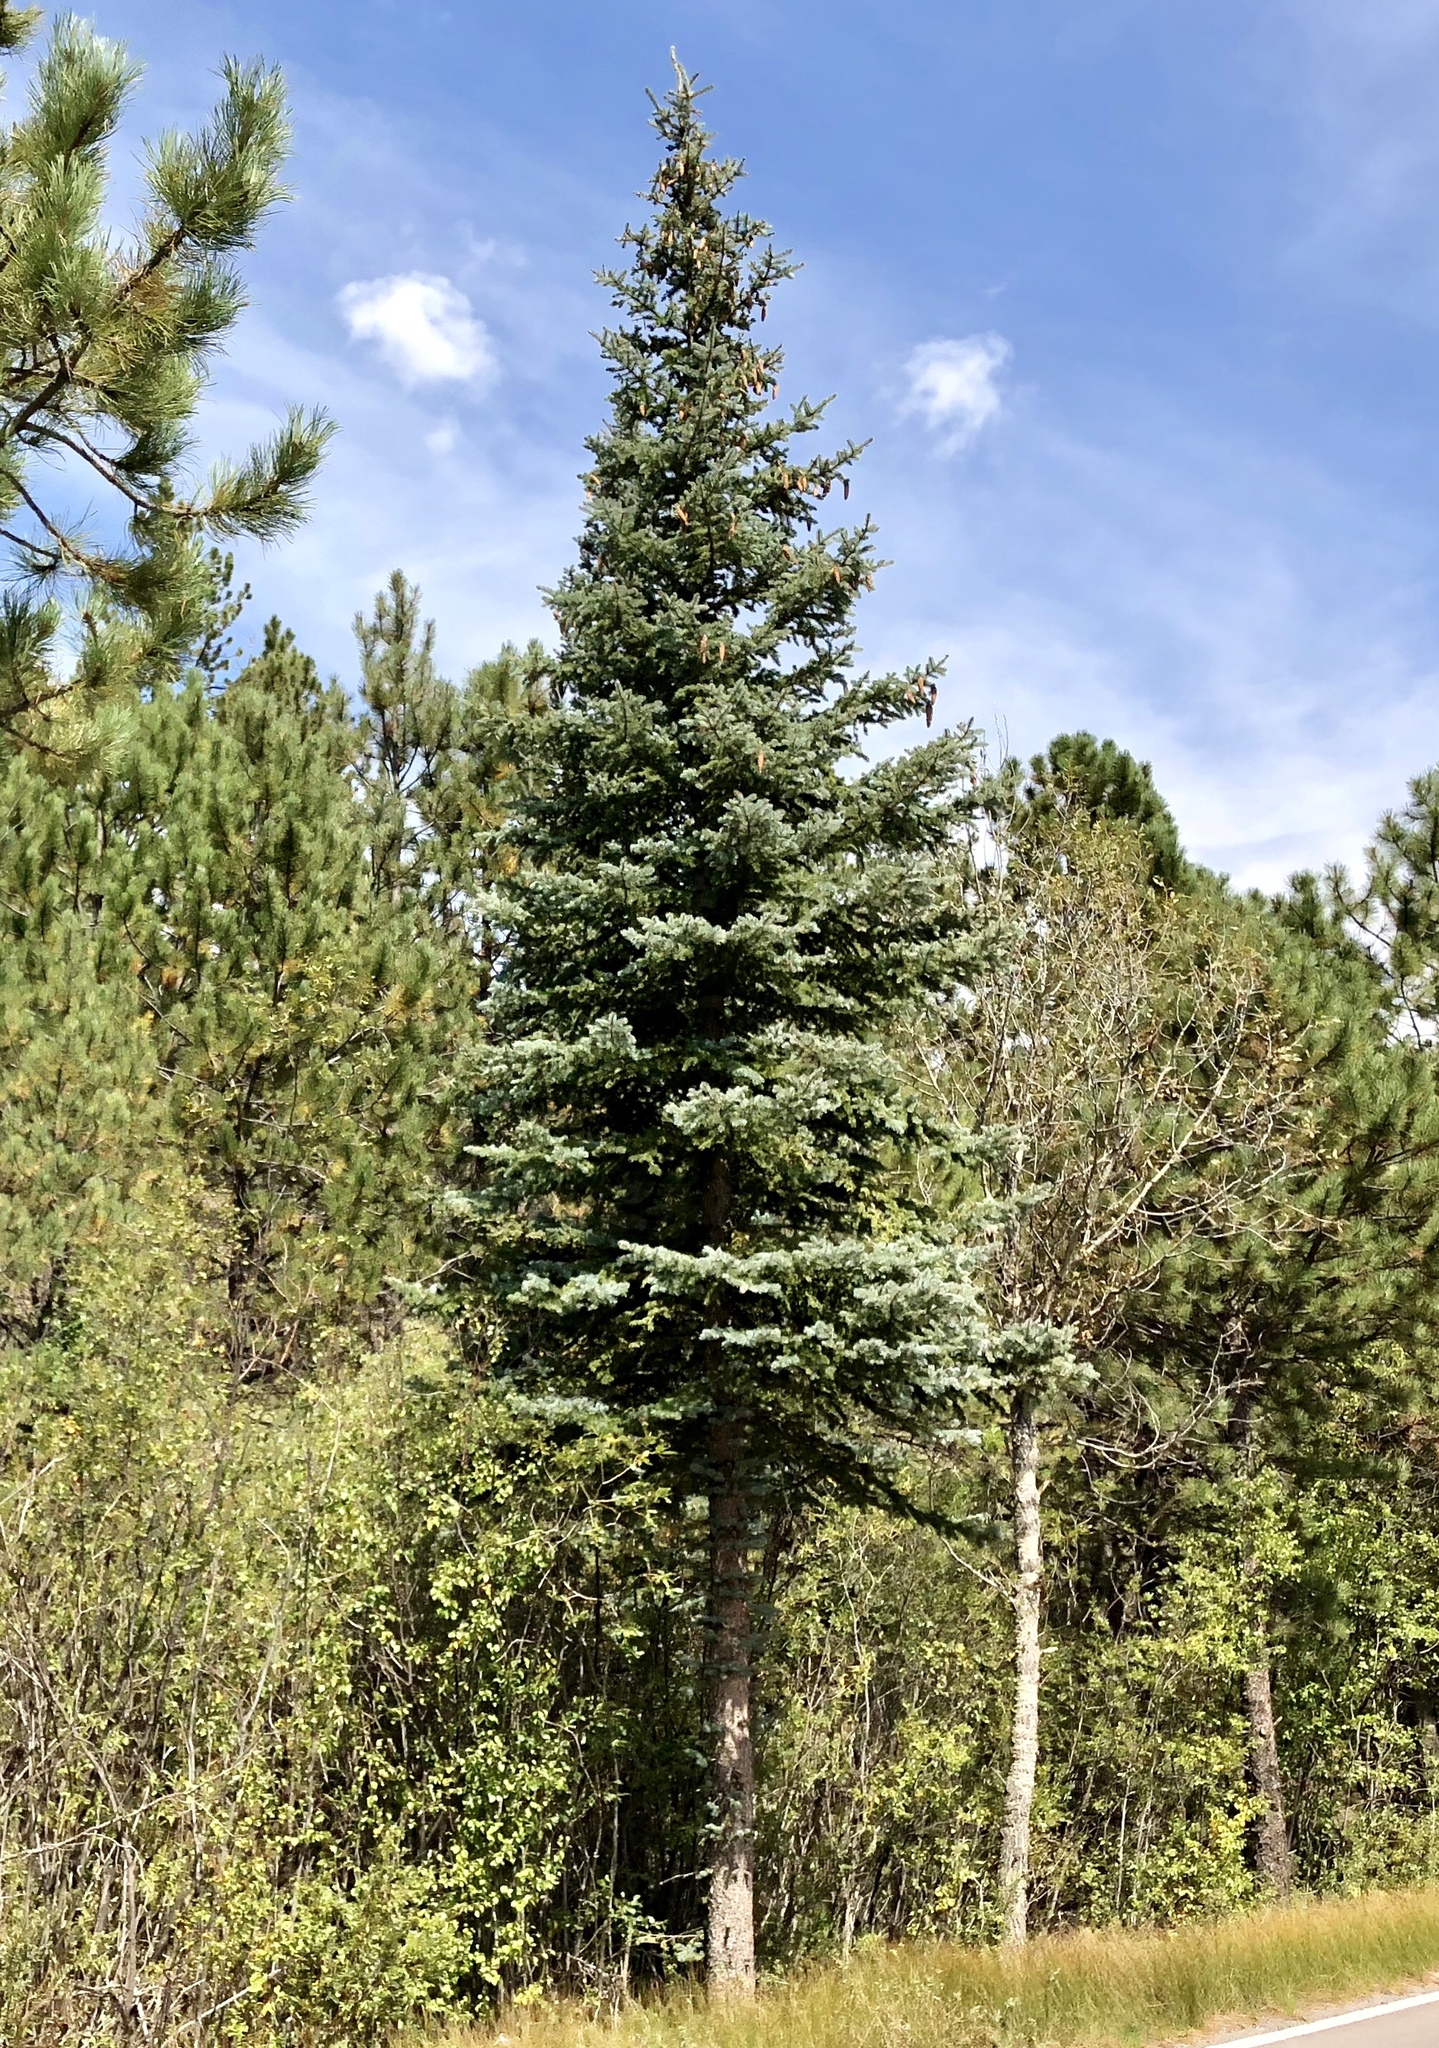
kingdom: Plantae
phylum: Tracheophyta
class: Pinopsida
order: Pinales
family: Pinaceae
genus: Picea
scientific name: Picea pungens
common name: Colorado spruce
